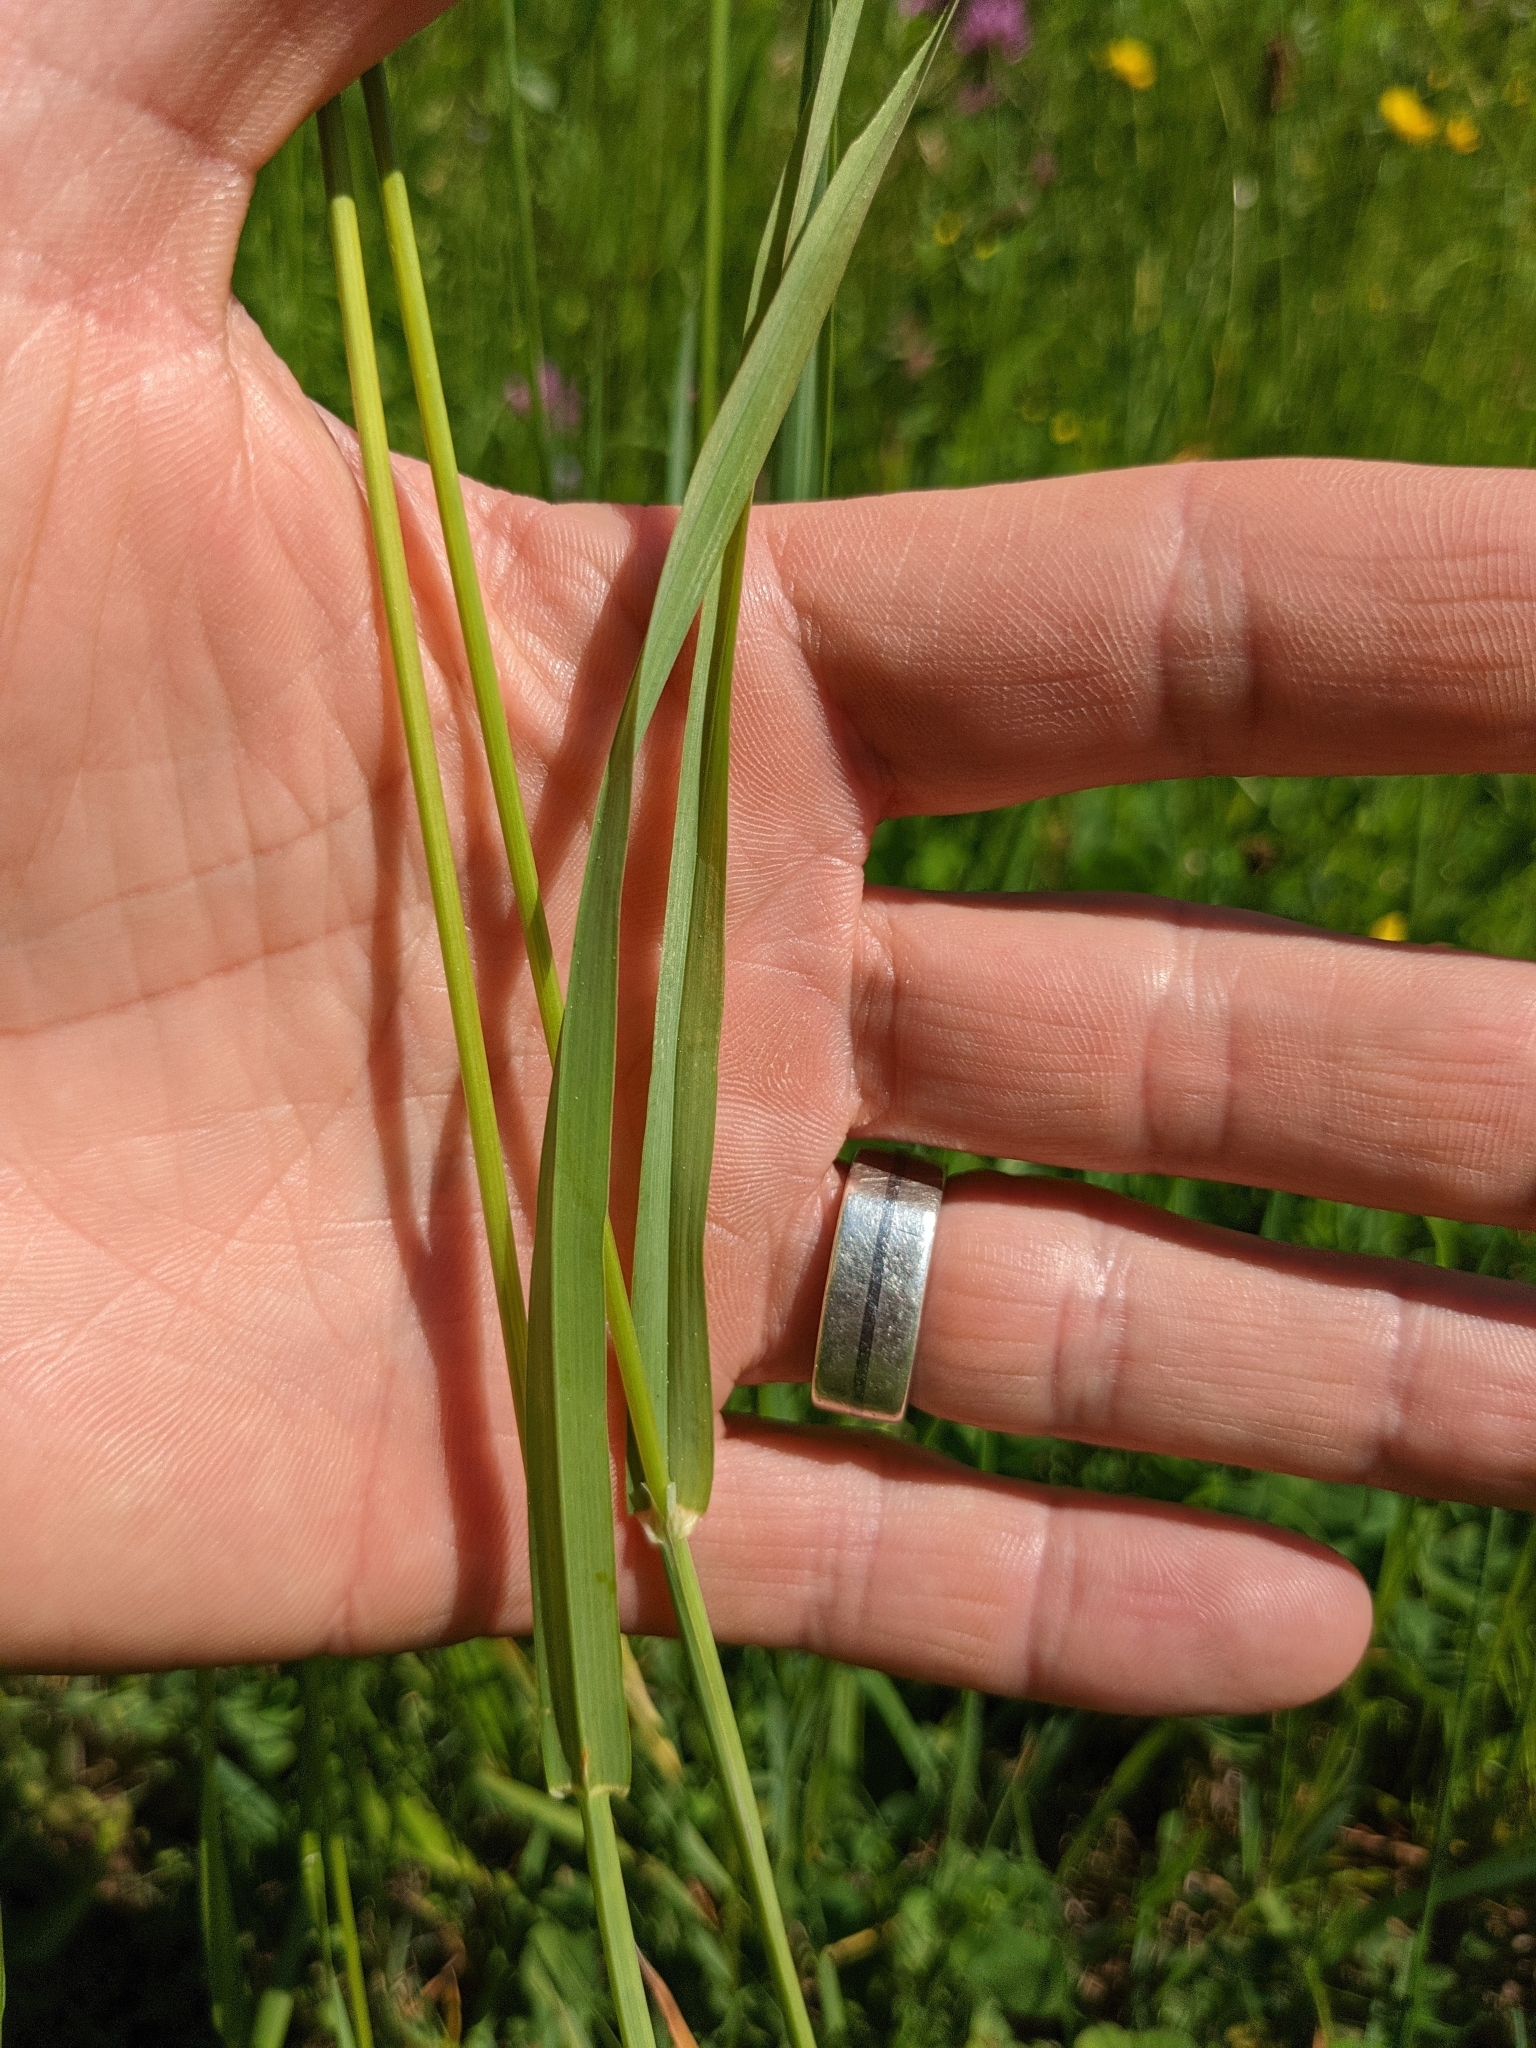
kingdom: Plantae
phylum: Tracheophyta
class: Liliopsida
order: Poales
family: Poaceae
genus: Dactylis
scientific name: Dactylis glomerata
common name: Orchardgrass
